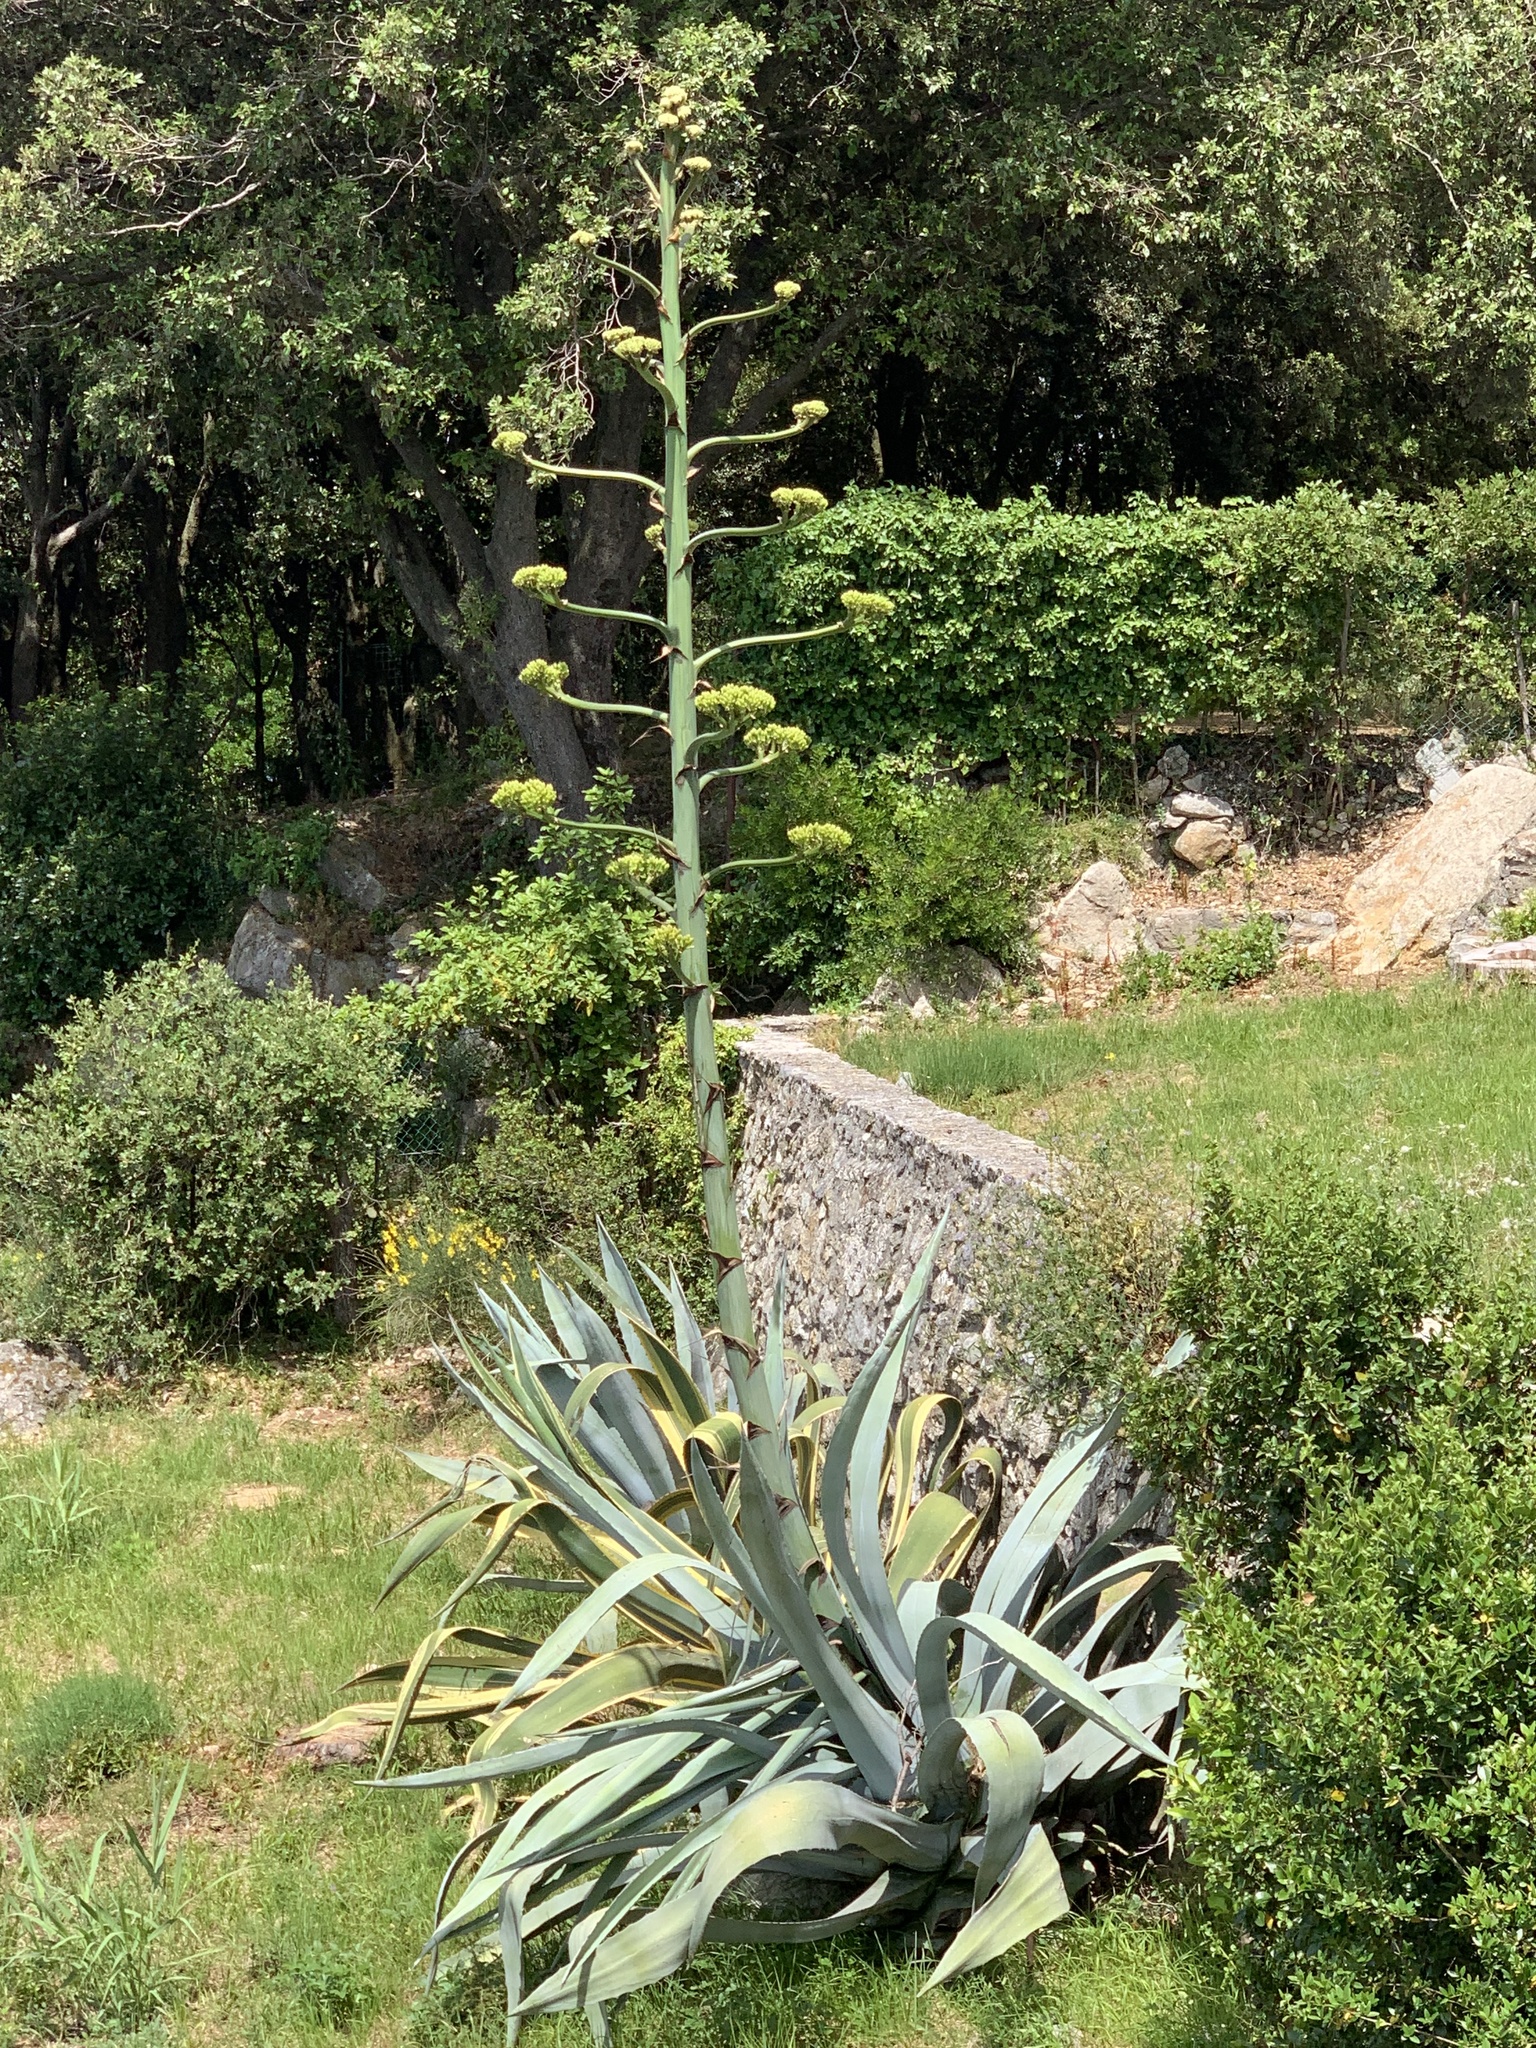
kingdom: Plantae
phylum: Tracheophyta
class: Liliopsida
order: Asparagales
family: Asparagaceae
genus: Agave
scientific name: Agave americana
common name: Centuryplant
